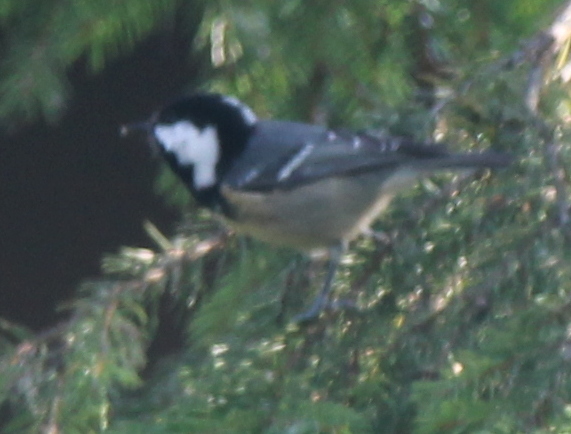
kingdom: Animalia
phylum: Chordata
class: Aves
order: Passeriformes
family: Paridae
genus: Periparus
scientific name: Periparus ater
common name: Coal tit
